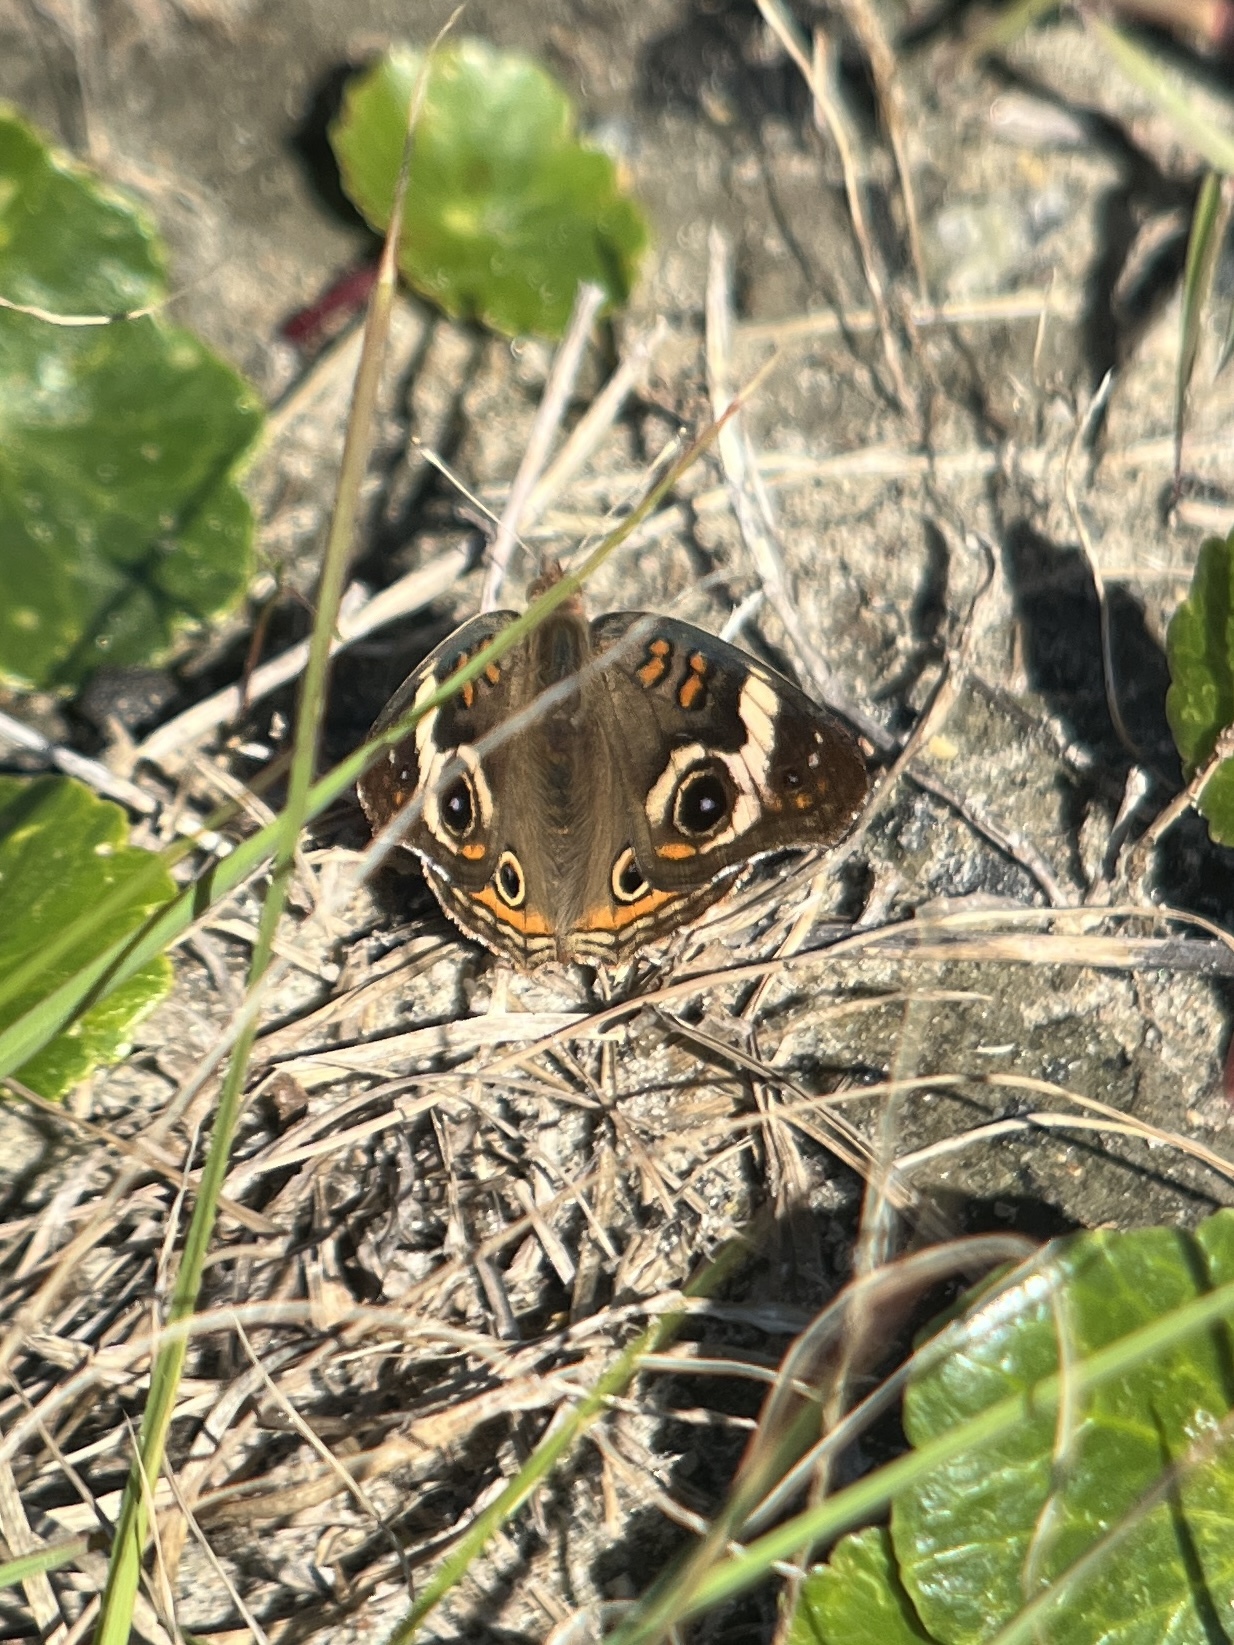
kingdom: Animalia
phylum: Arthropoda
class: Insecta
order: Lepidoptera
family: Nymphalidae
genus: Junonia
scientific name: Junonia coenia
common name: Common buckeye
